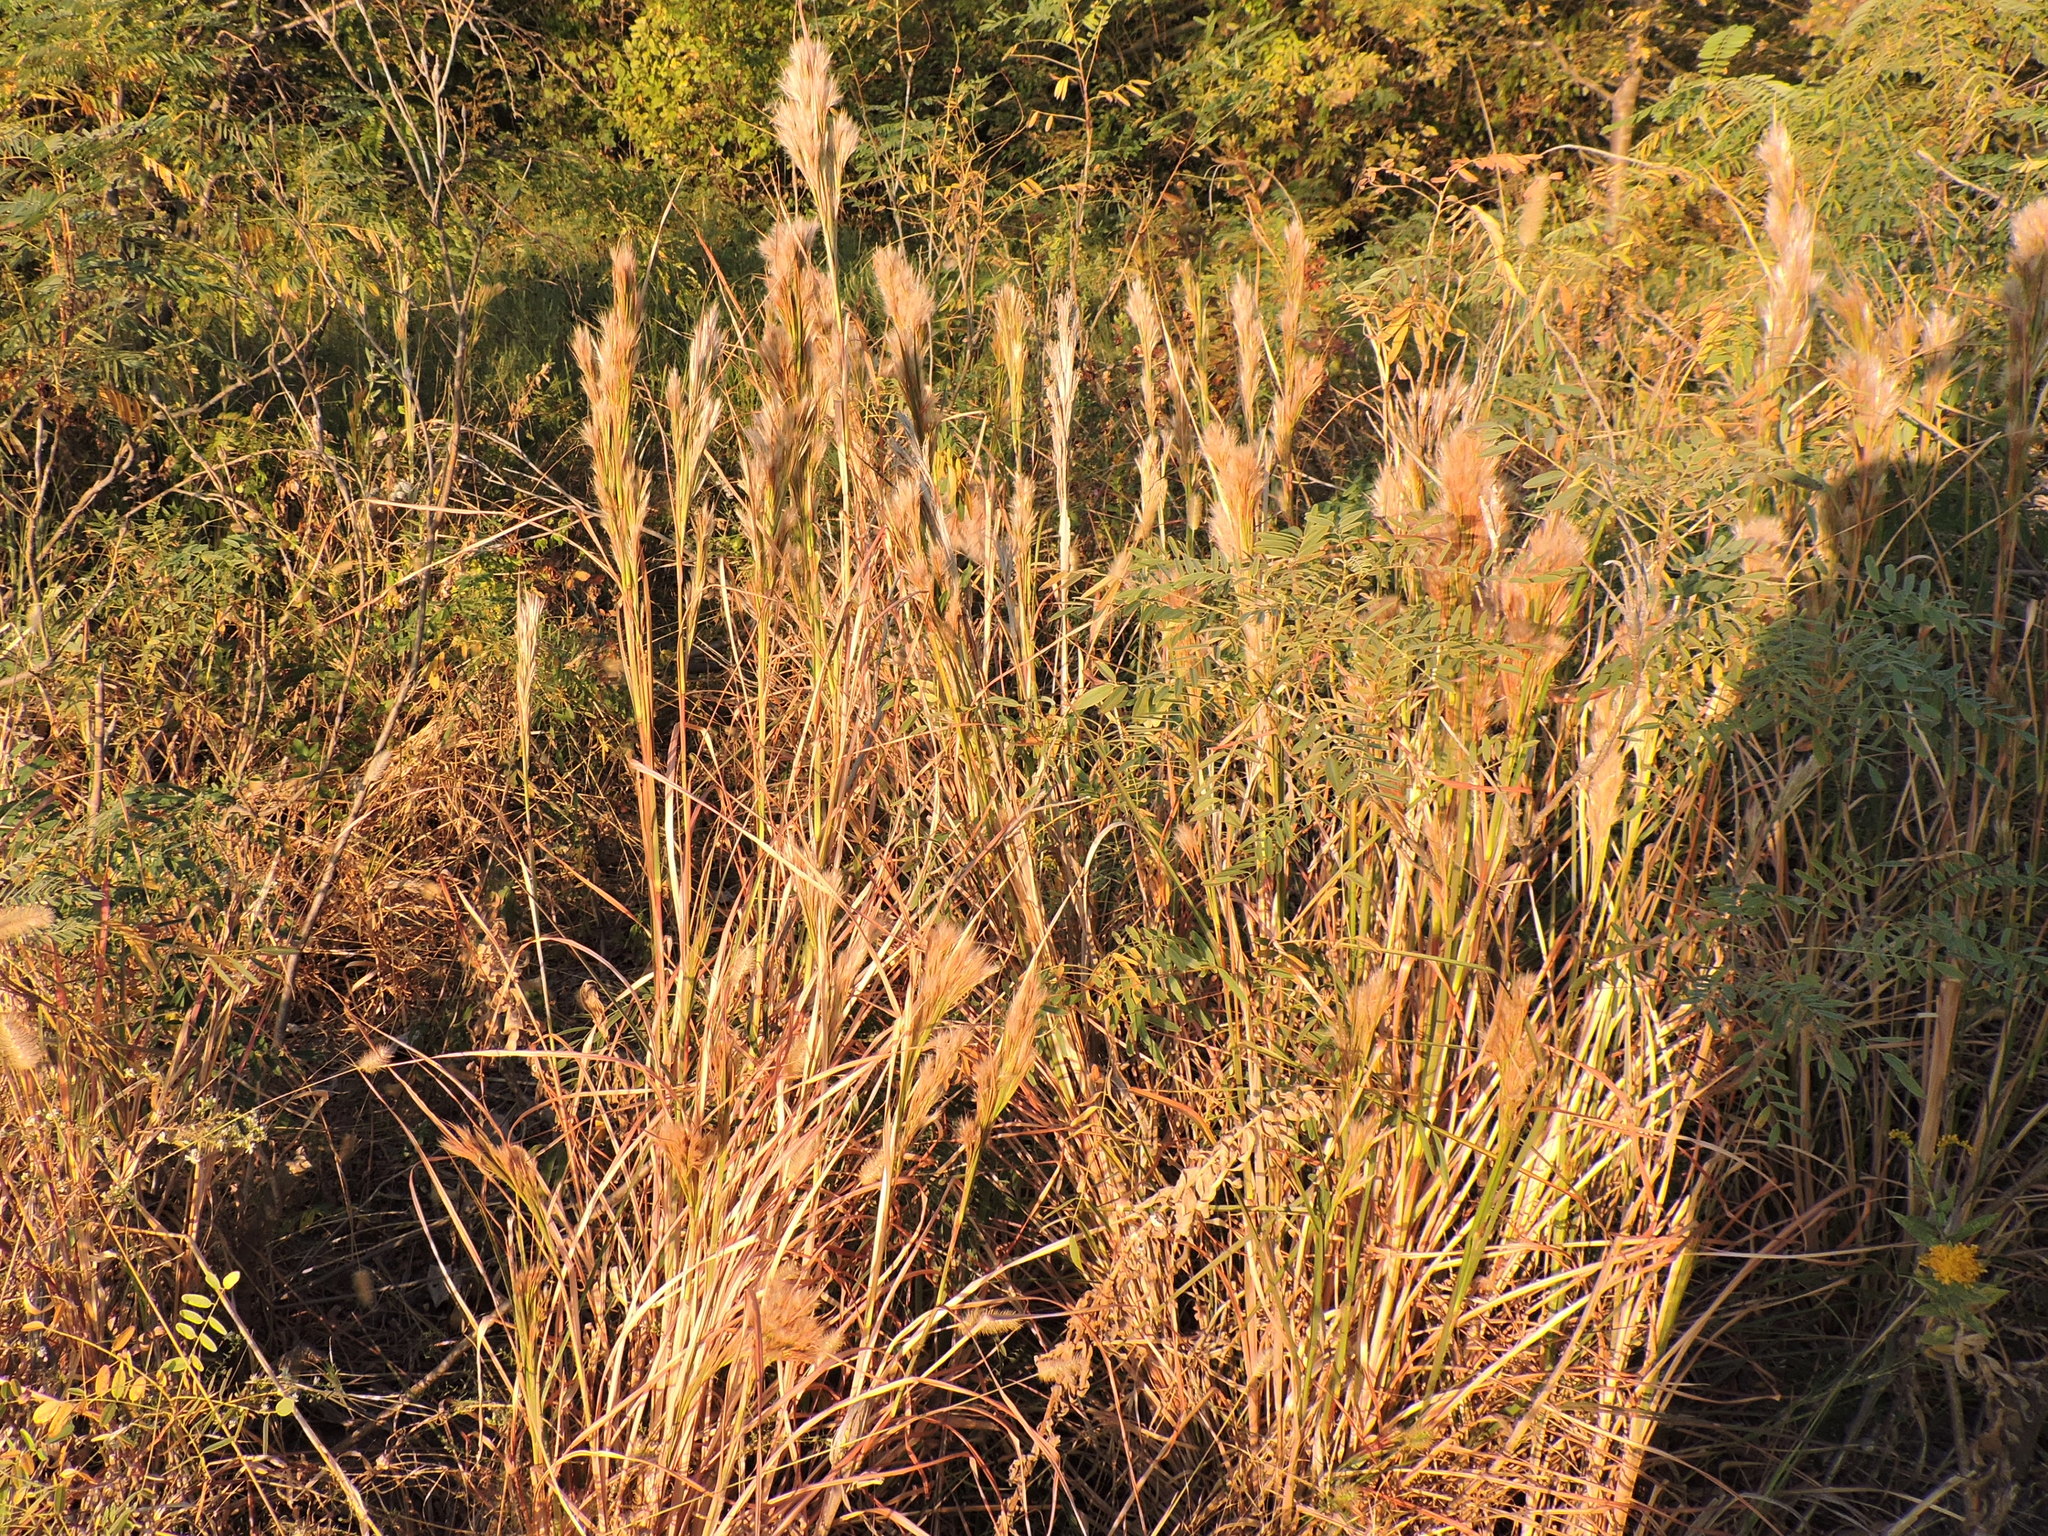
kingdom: Plantae
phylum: Tracheophyta
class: Liliopsida
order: Poales
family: Poaceae
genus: Andropogon
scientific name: Andropogon tenuispatheus
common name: Bushy bluestem
